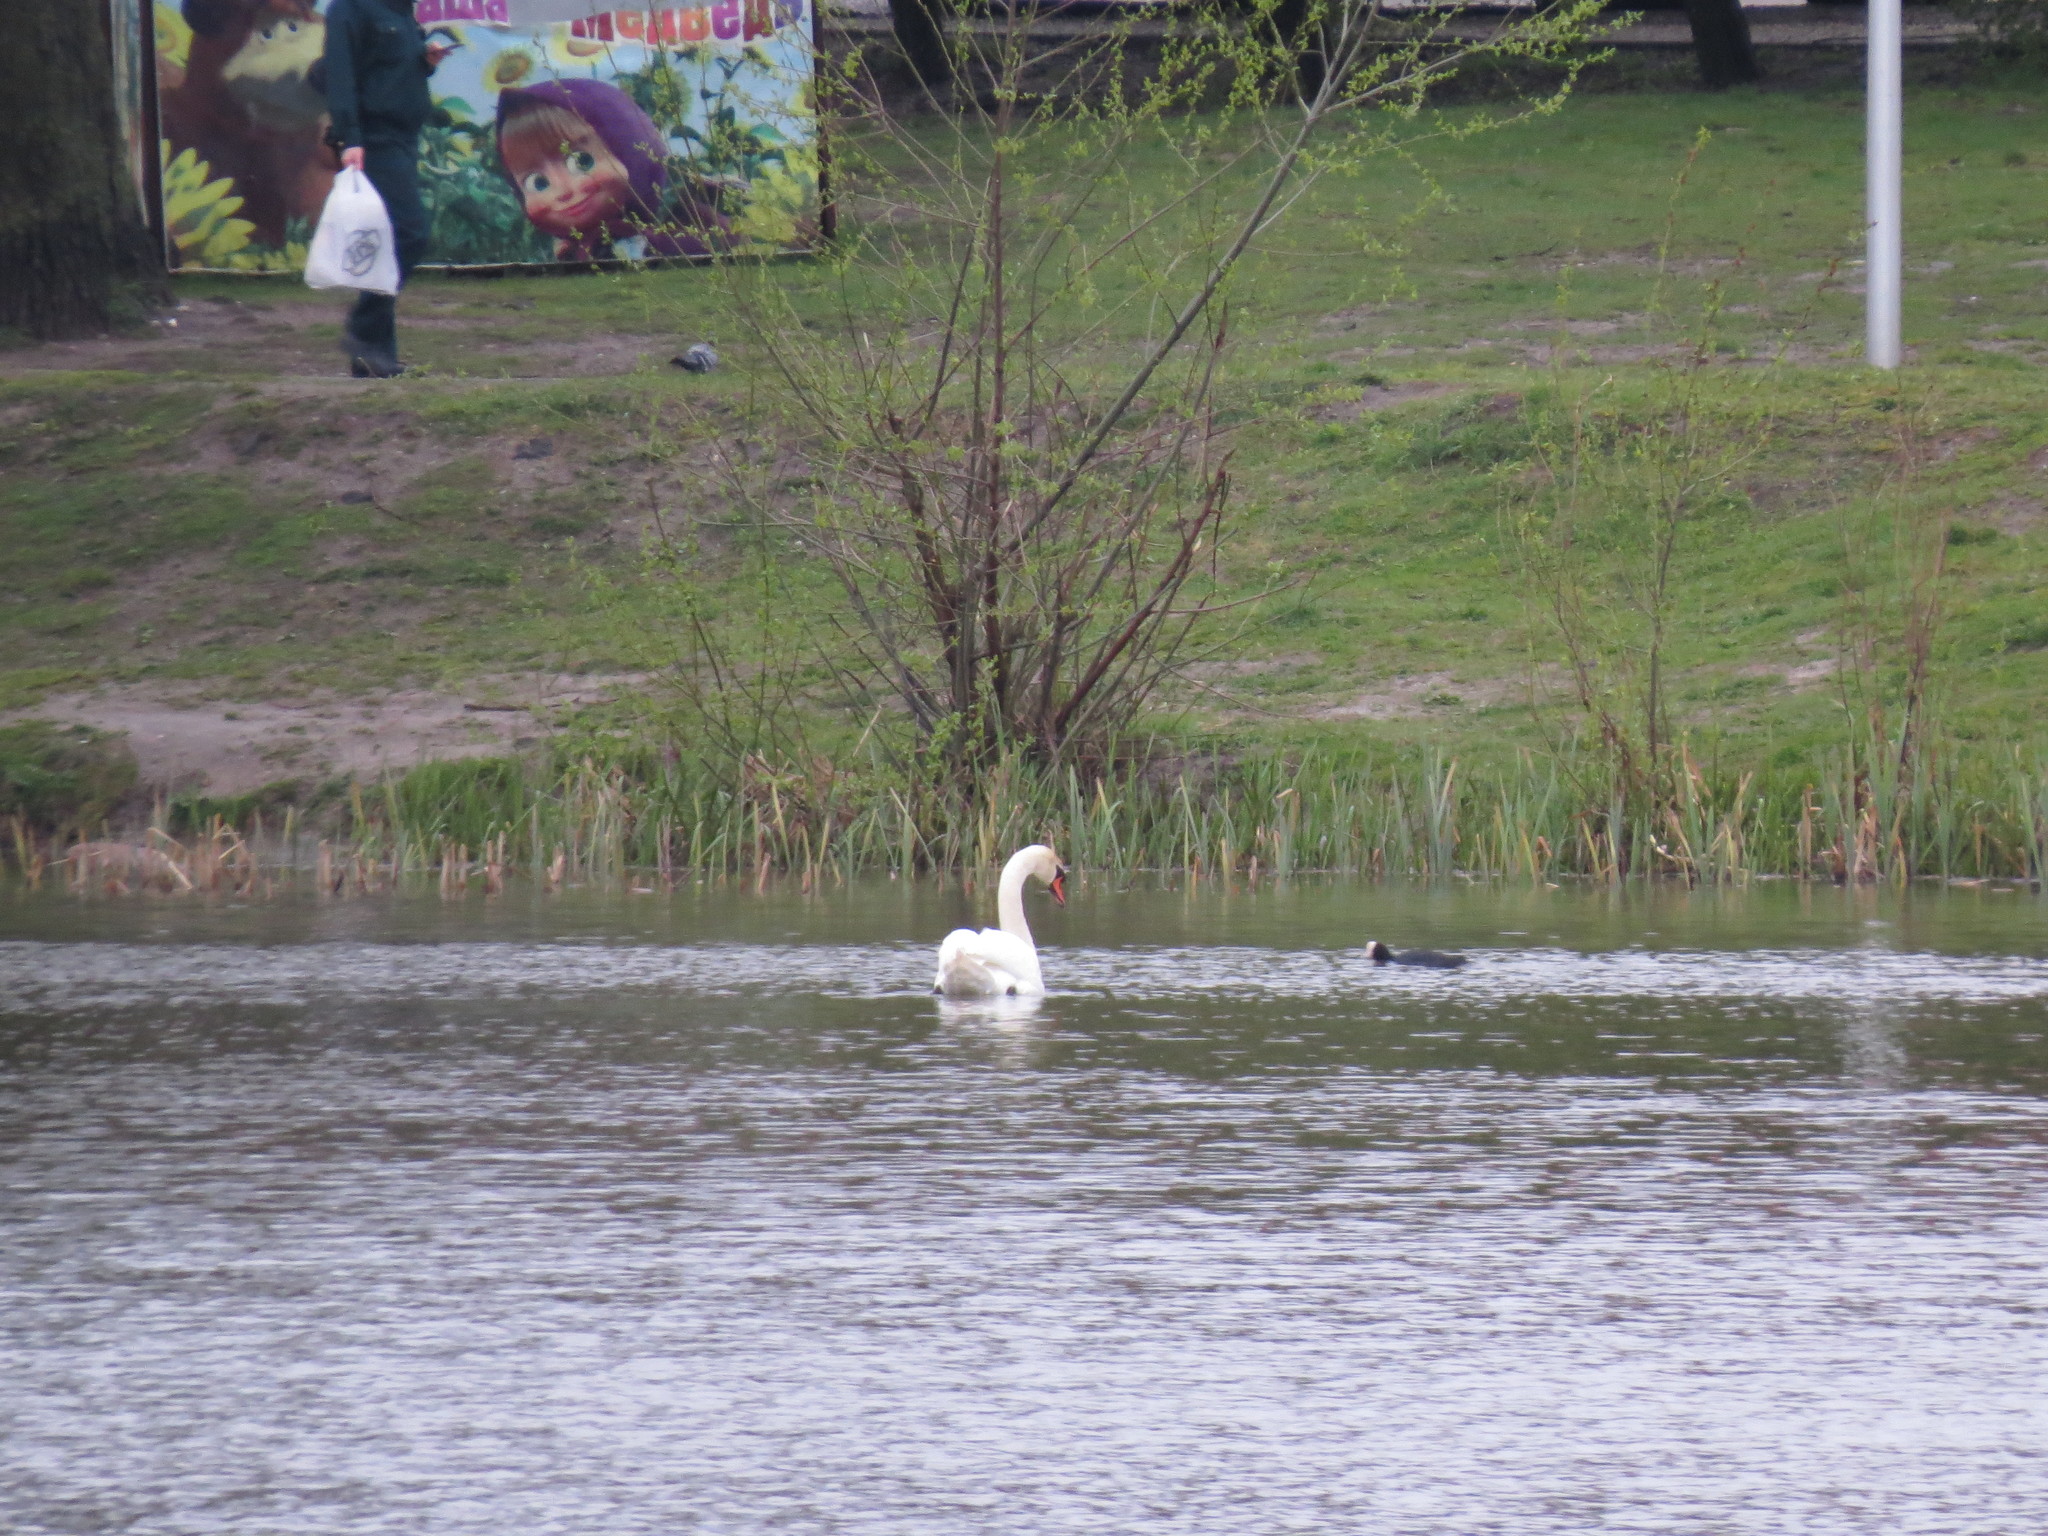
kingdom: Animalia
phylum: Chordata
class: Aves
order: Anseriformes
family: Anatidae
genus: Cygnus
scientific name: Cygnus olor
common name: Mute swan
